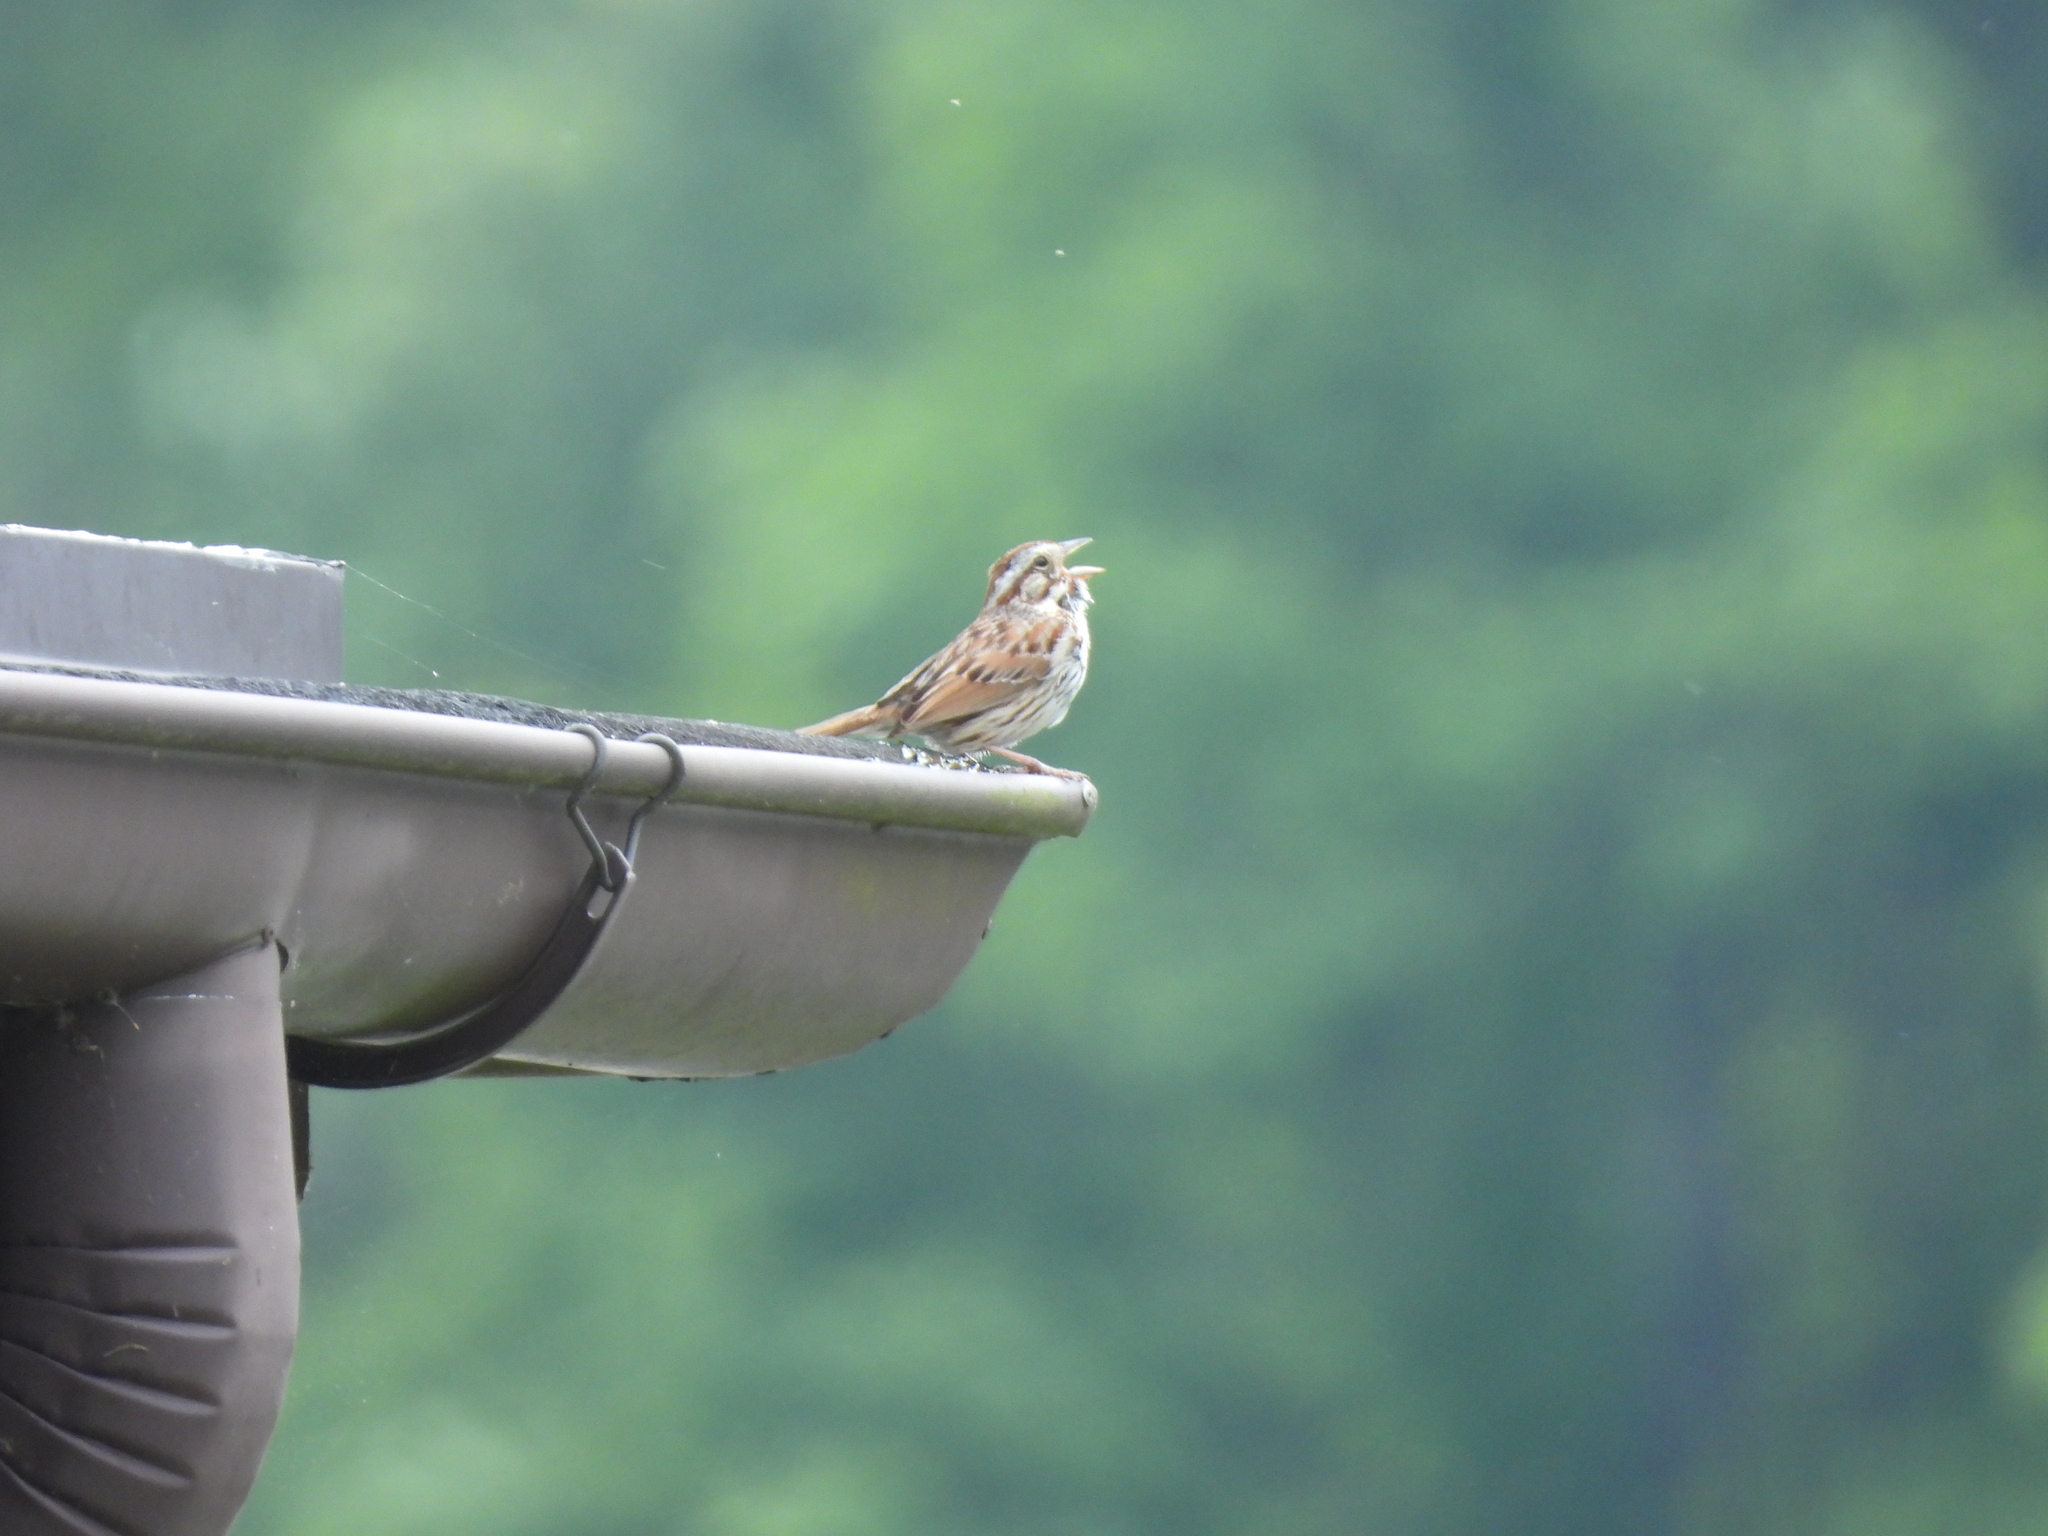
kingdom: Animalia
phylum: Chordata
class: Aves
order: Passeriformes
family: Passerellidae
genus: Melospiza
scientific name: Melospiza melodia
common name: Song sparrow
